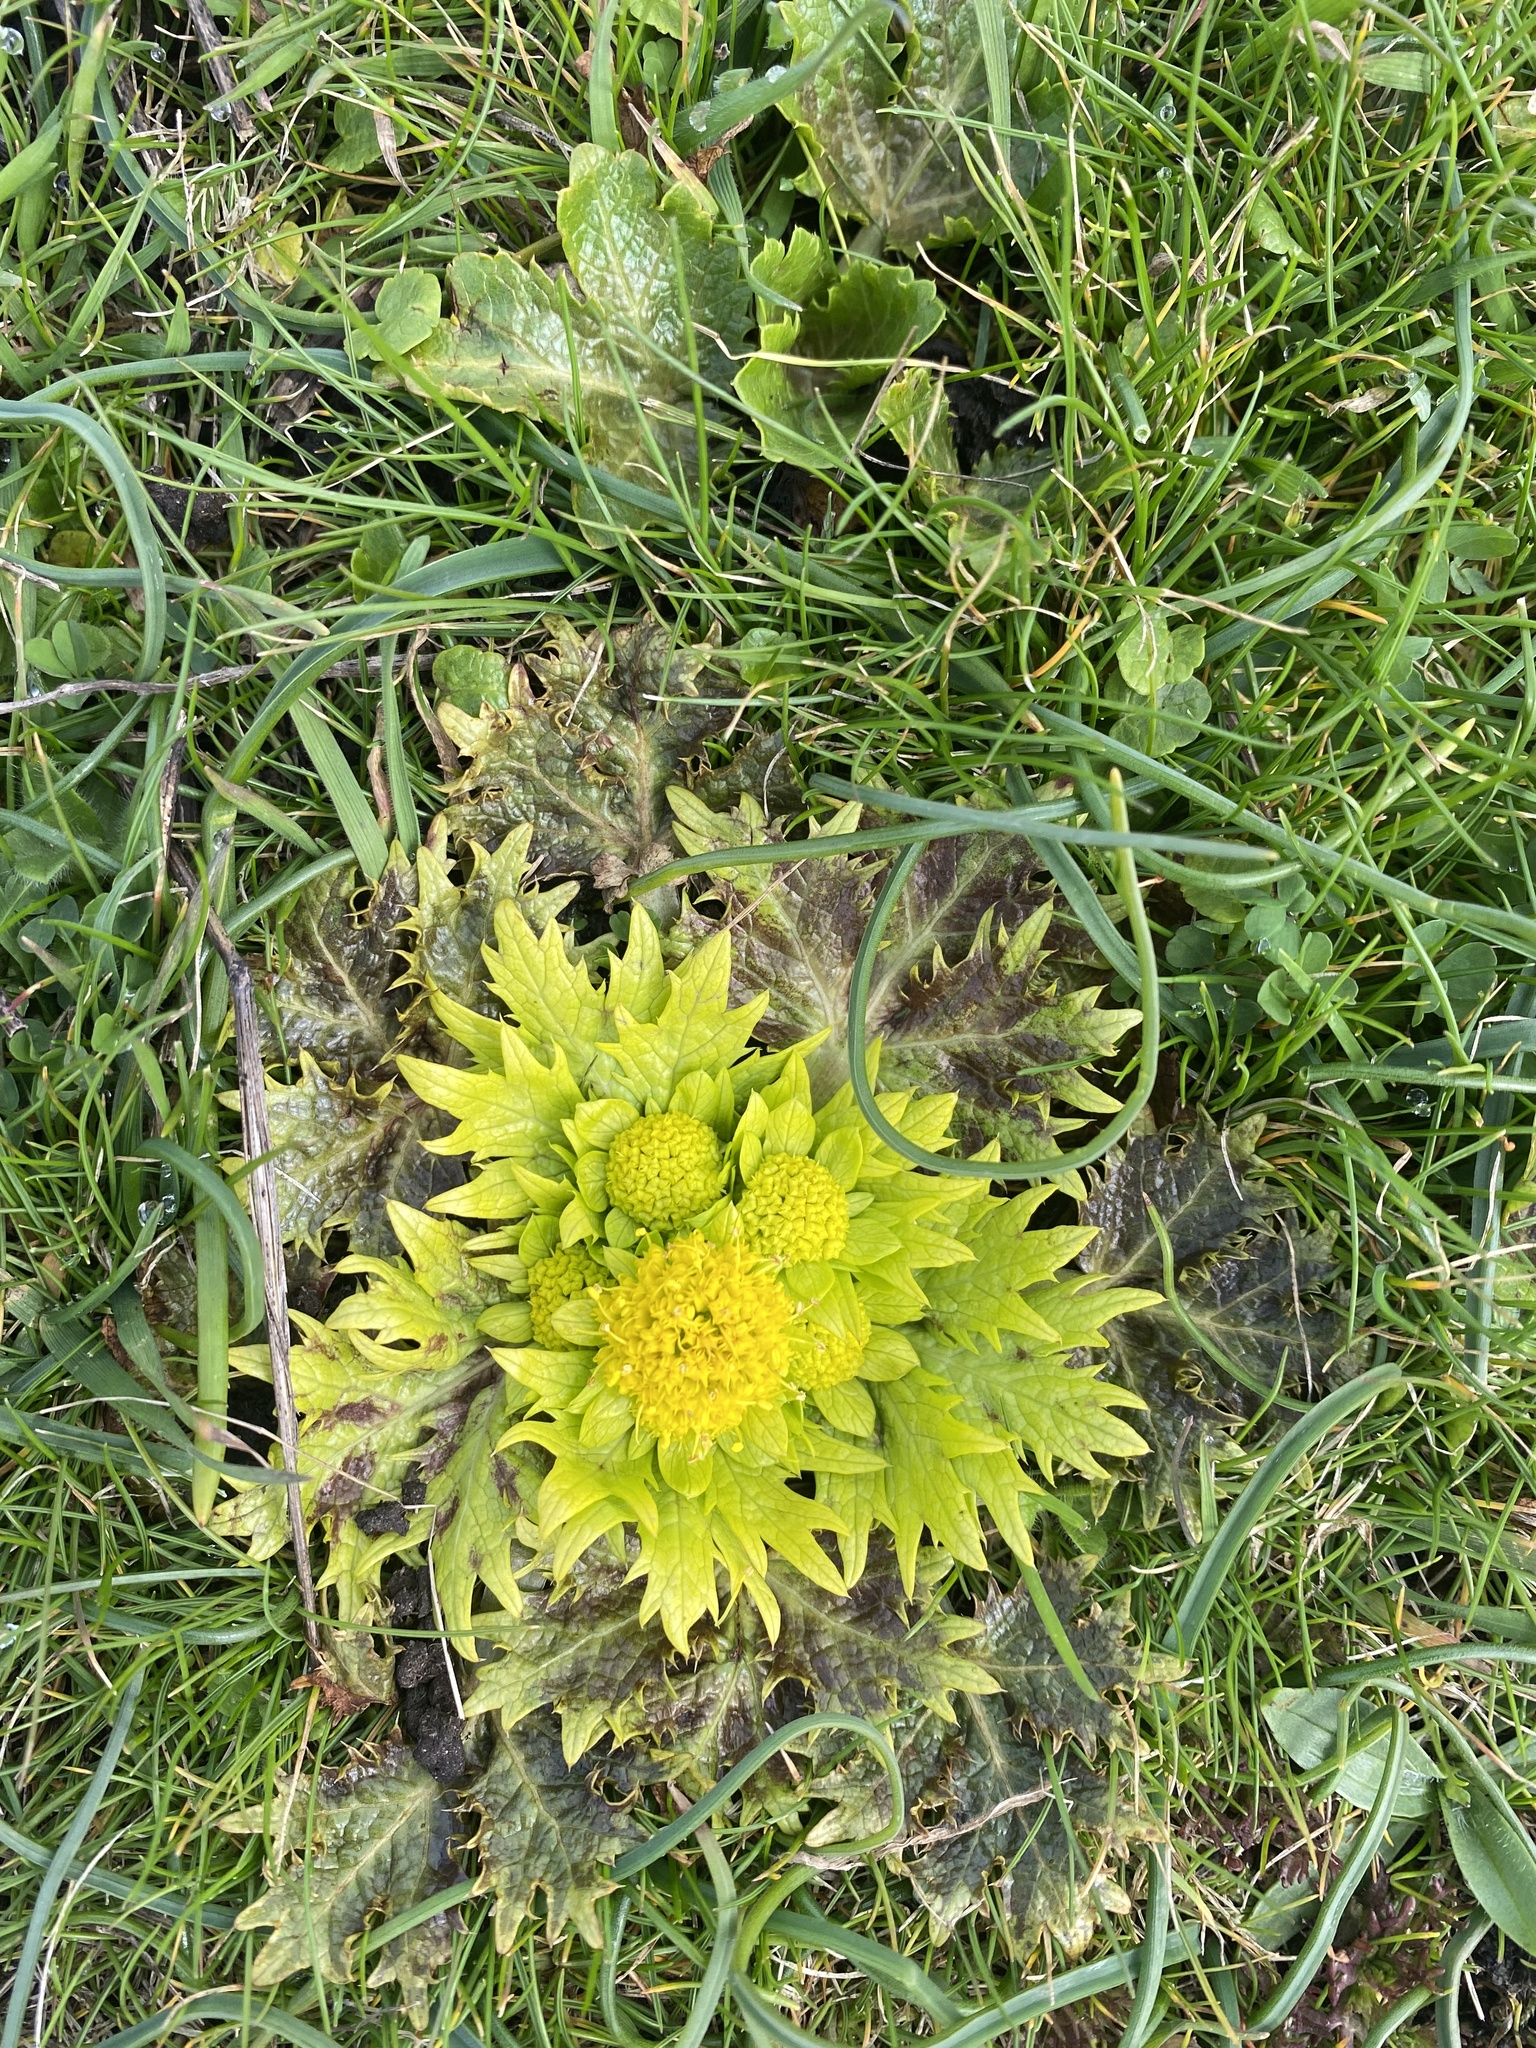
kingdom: Plantae
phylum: Tracheophyta
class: Magnoliopsida
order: Apiales
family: Apiaceae
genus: Sanicula
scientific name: Sanicula arctopoides
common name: Footsteps-of-spring
